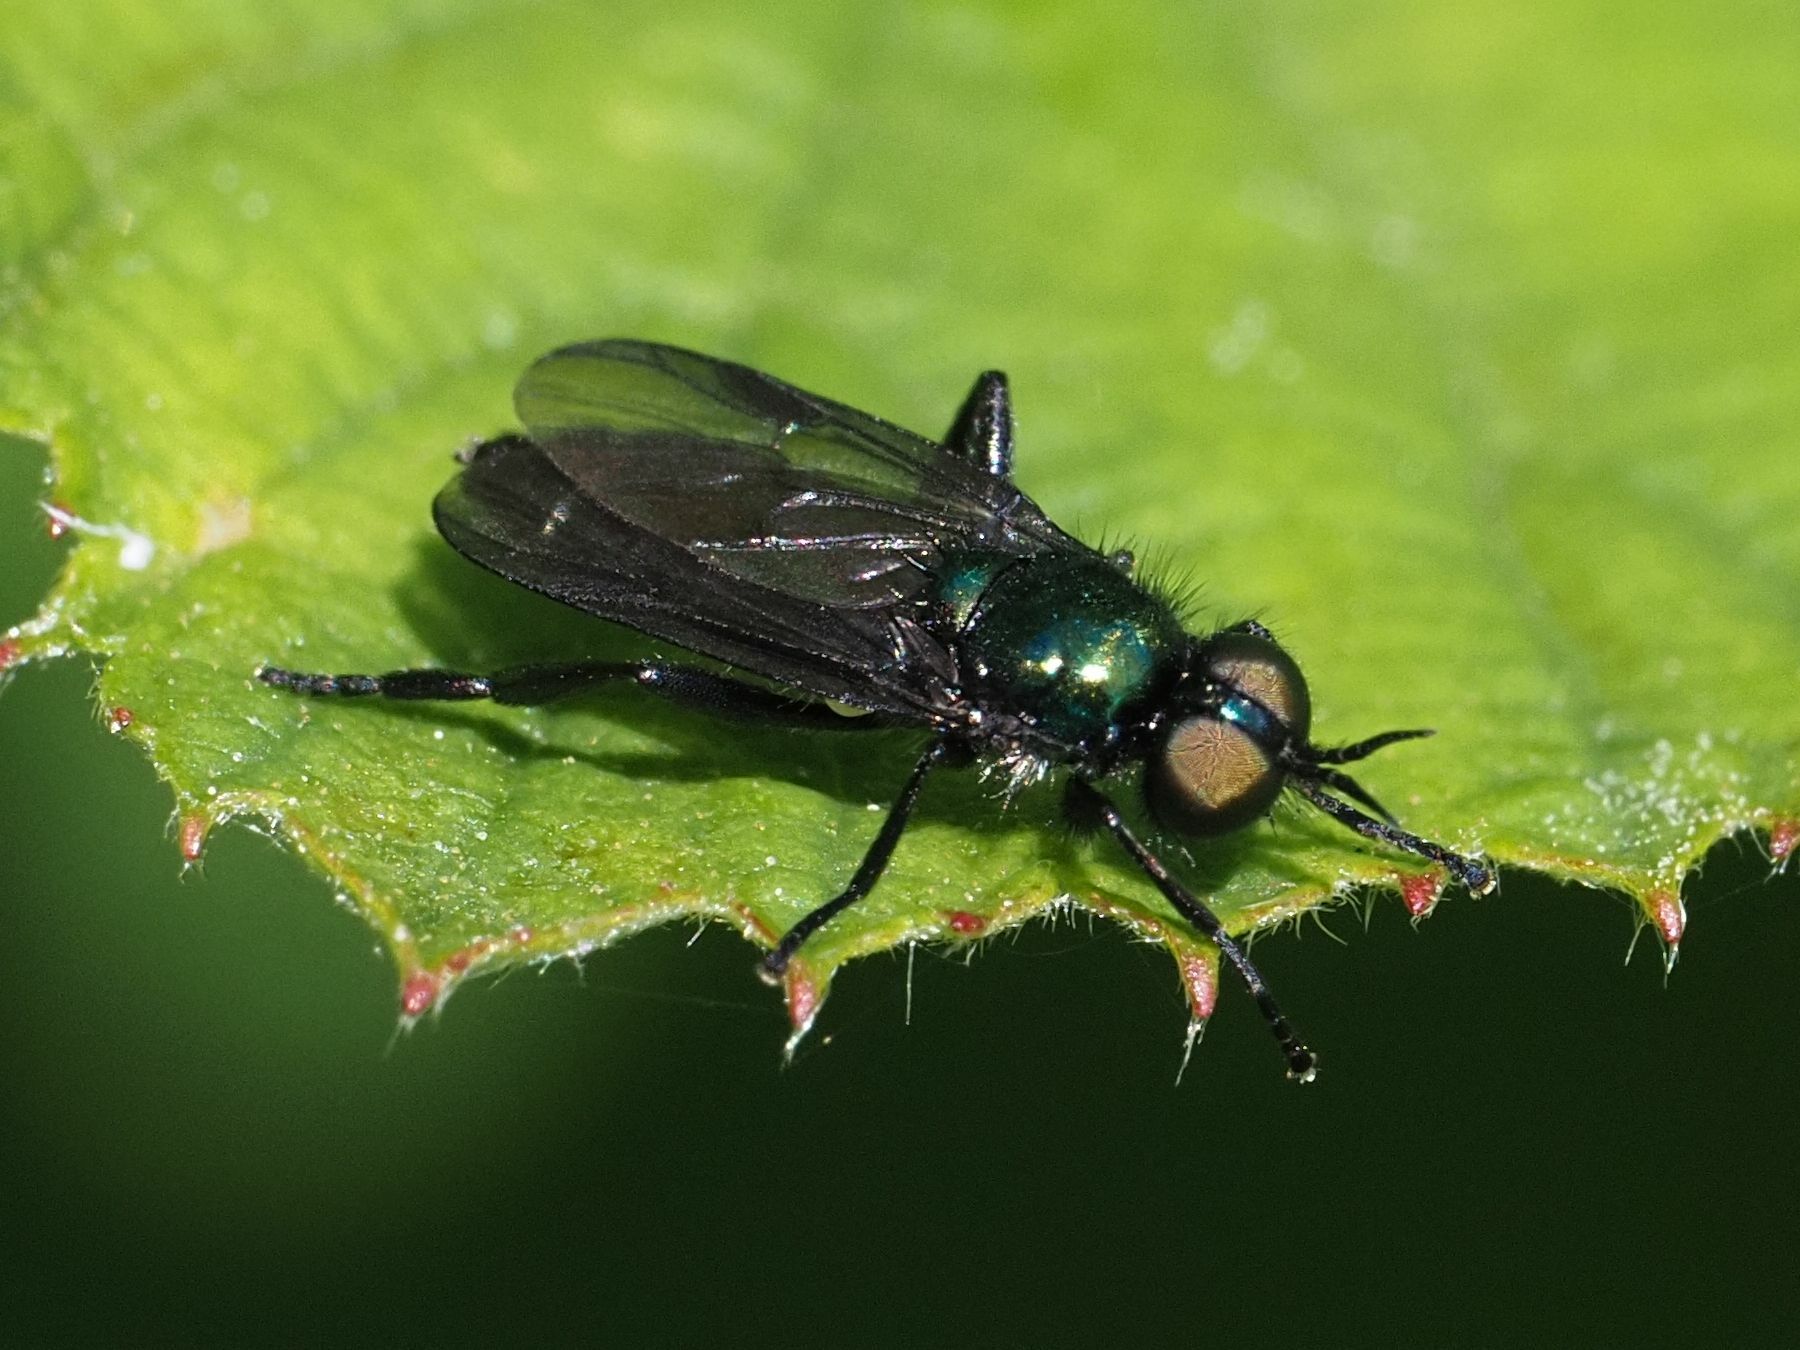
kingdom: Animalia
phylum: Arthropoda
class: Insecta
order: Diptera
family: Stratiomyidae
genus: Actina
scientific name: Actina chalybea
